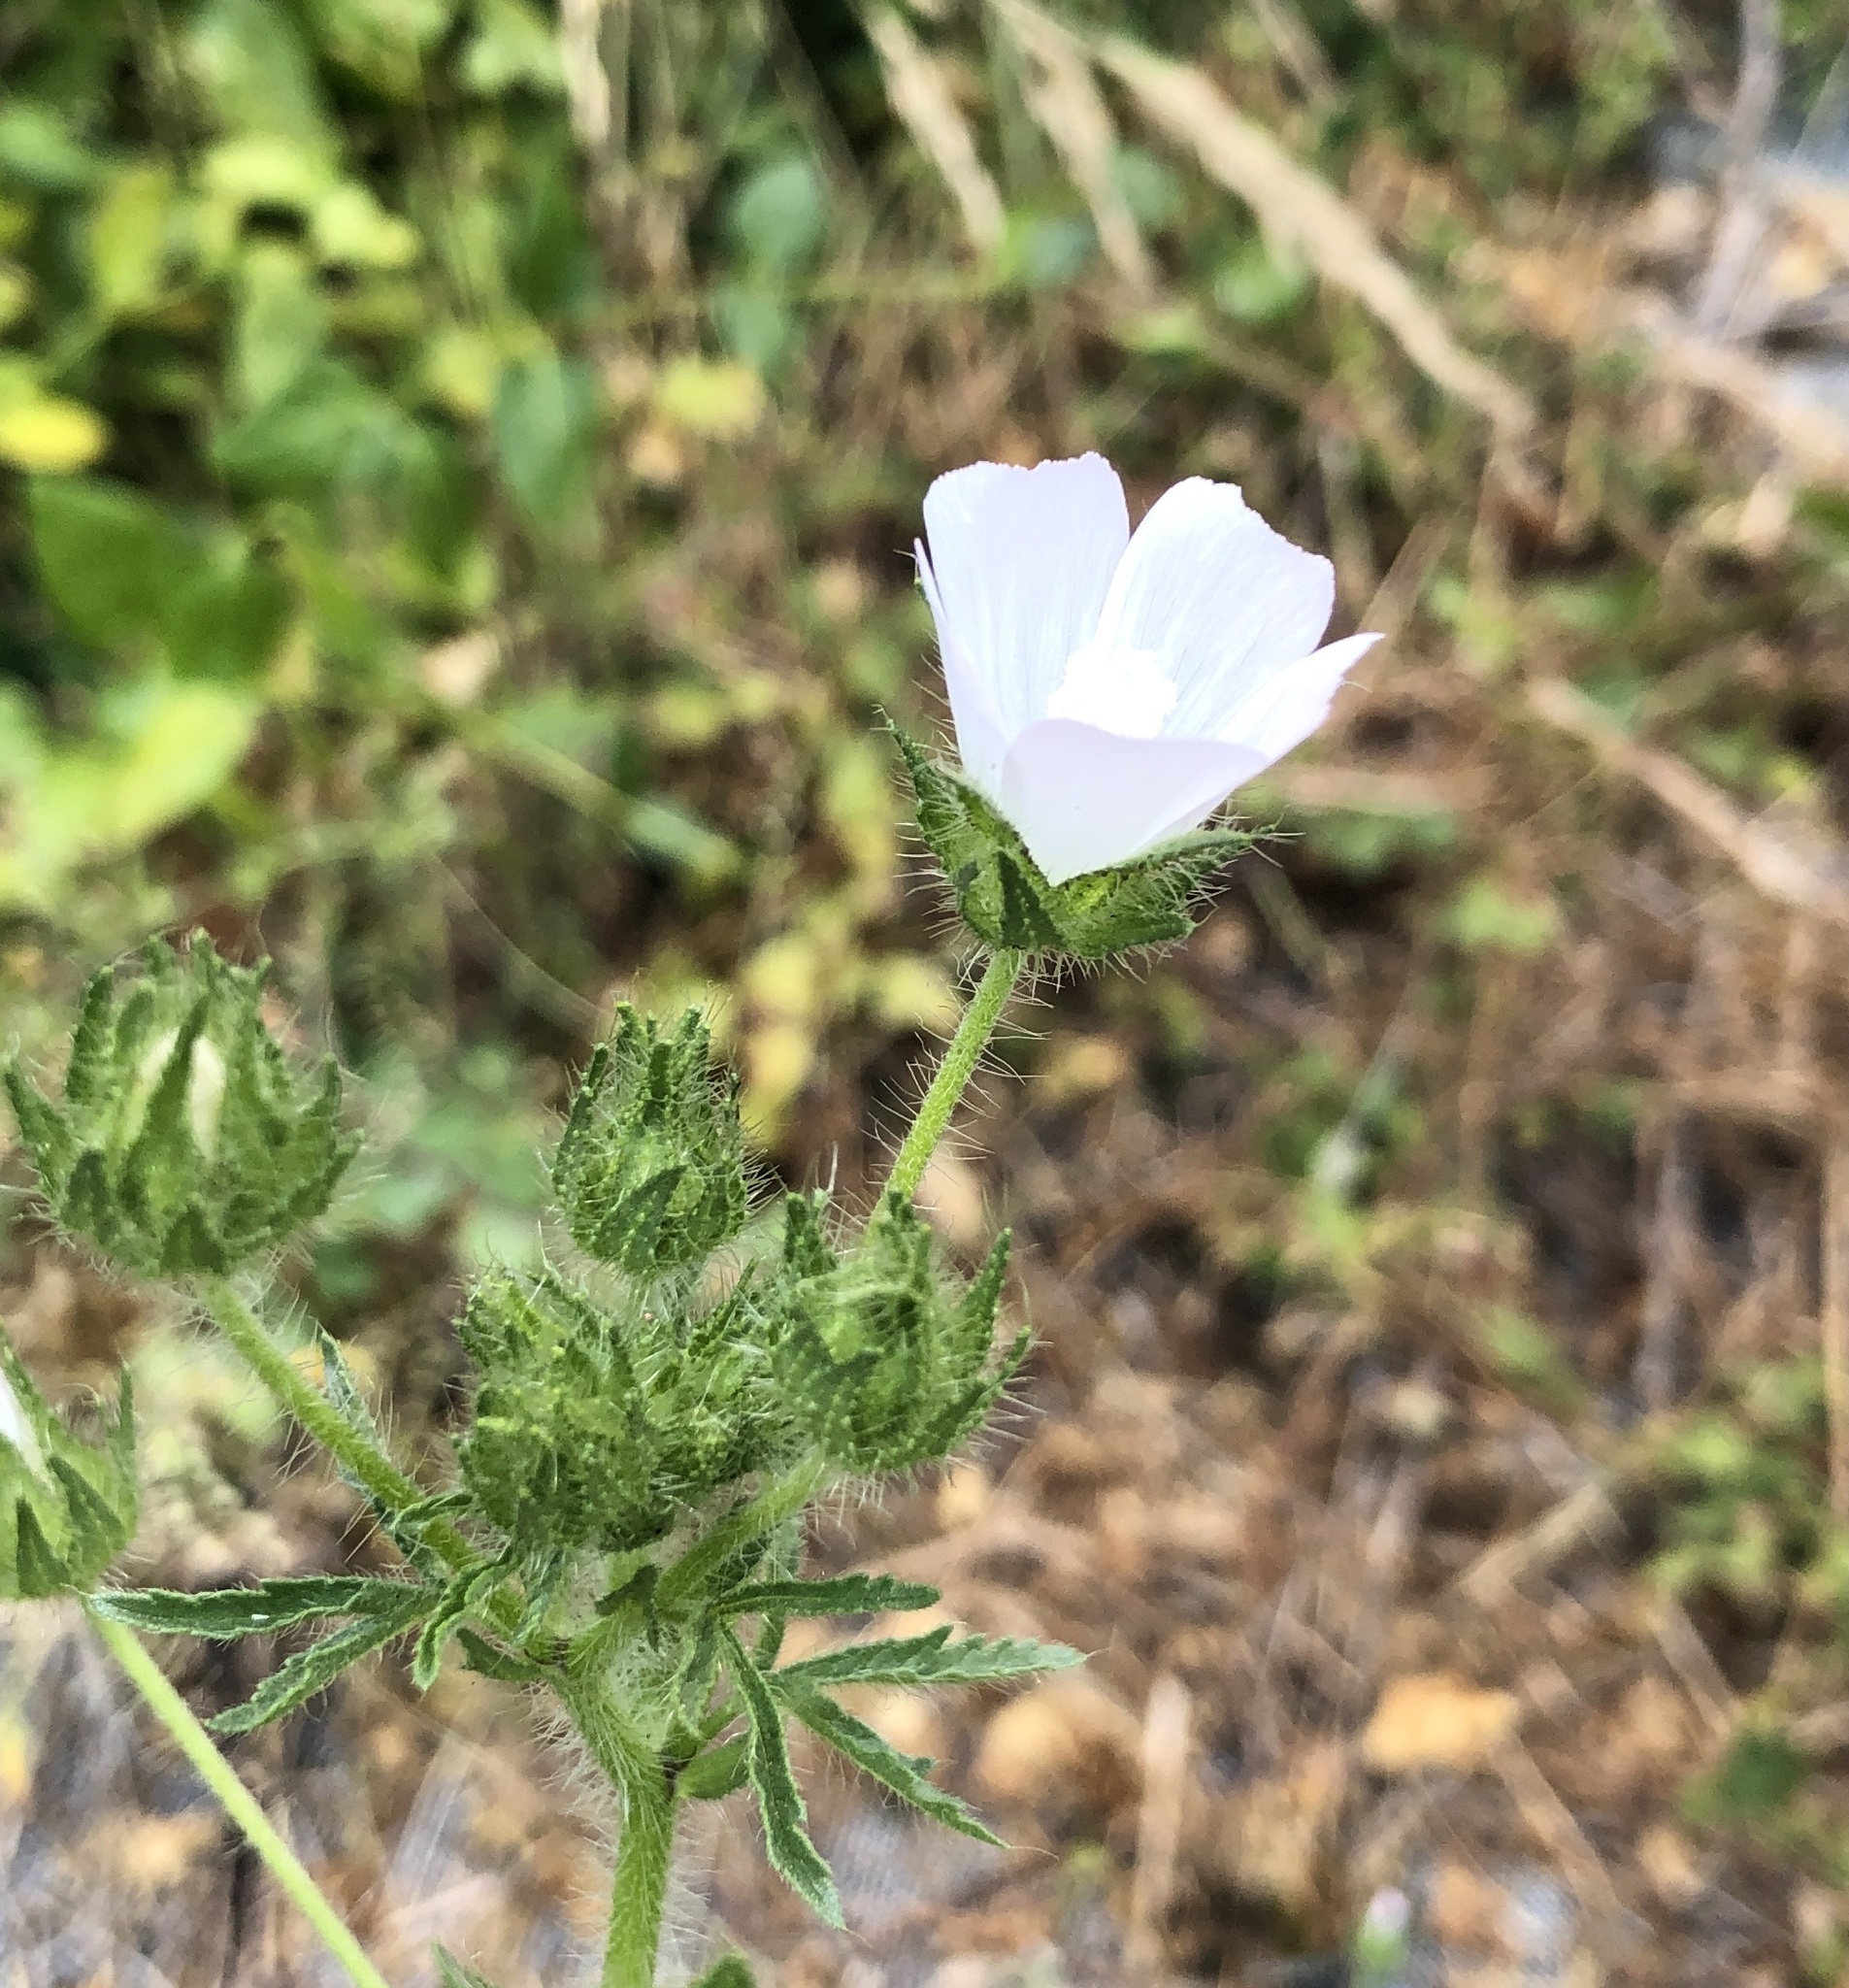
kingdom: Plantae
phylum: Tracheophyta
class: Magnoliopsida
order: Malvales
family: Malvaceae
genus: Althaea
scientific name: Althaea hirsuta
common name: Rough marsh-mallow
